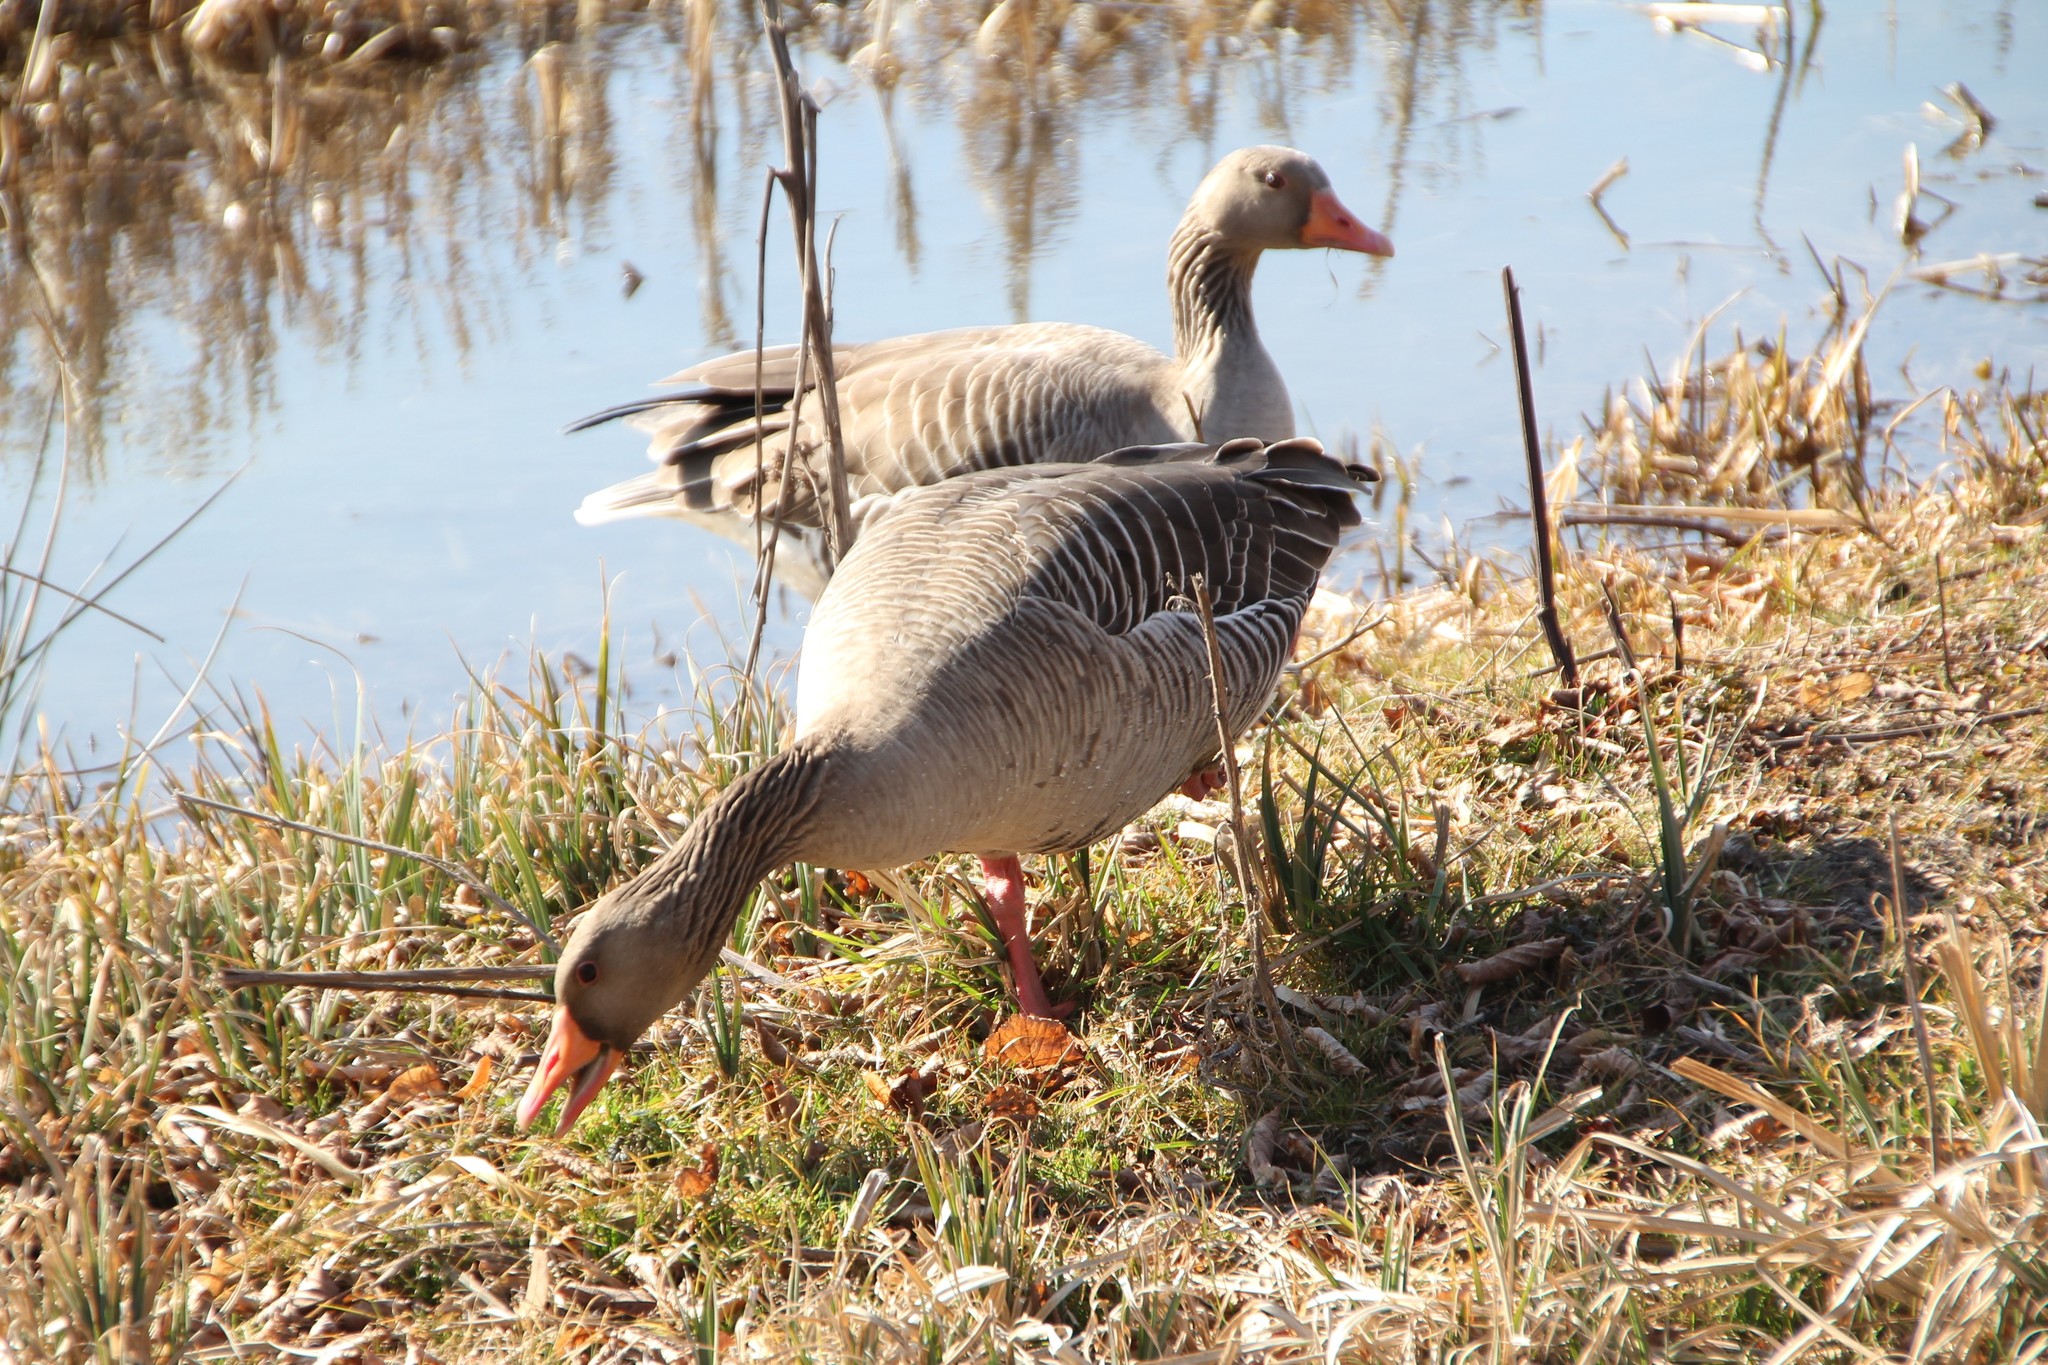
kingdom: Animalia
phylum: Chordata
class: Aves
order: Anseriformes
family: Anatidae
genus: Anser
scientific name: Anser anser
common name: Greylag goose
